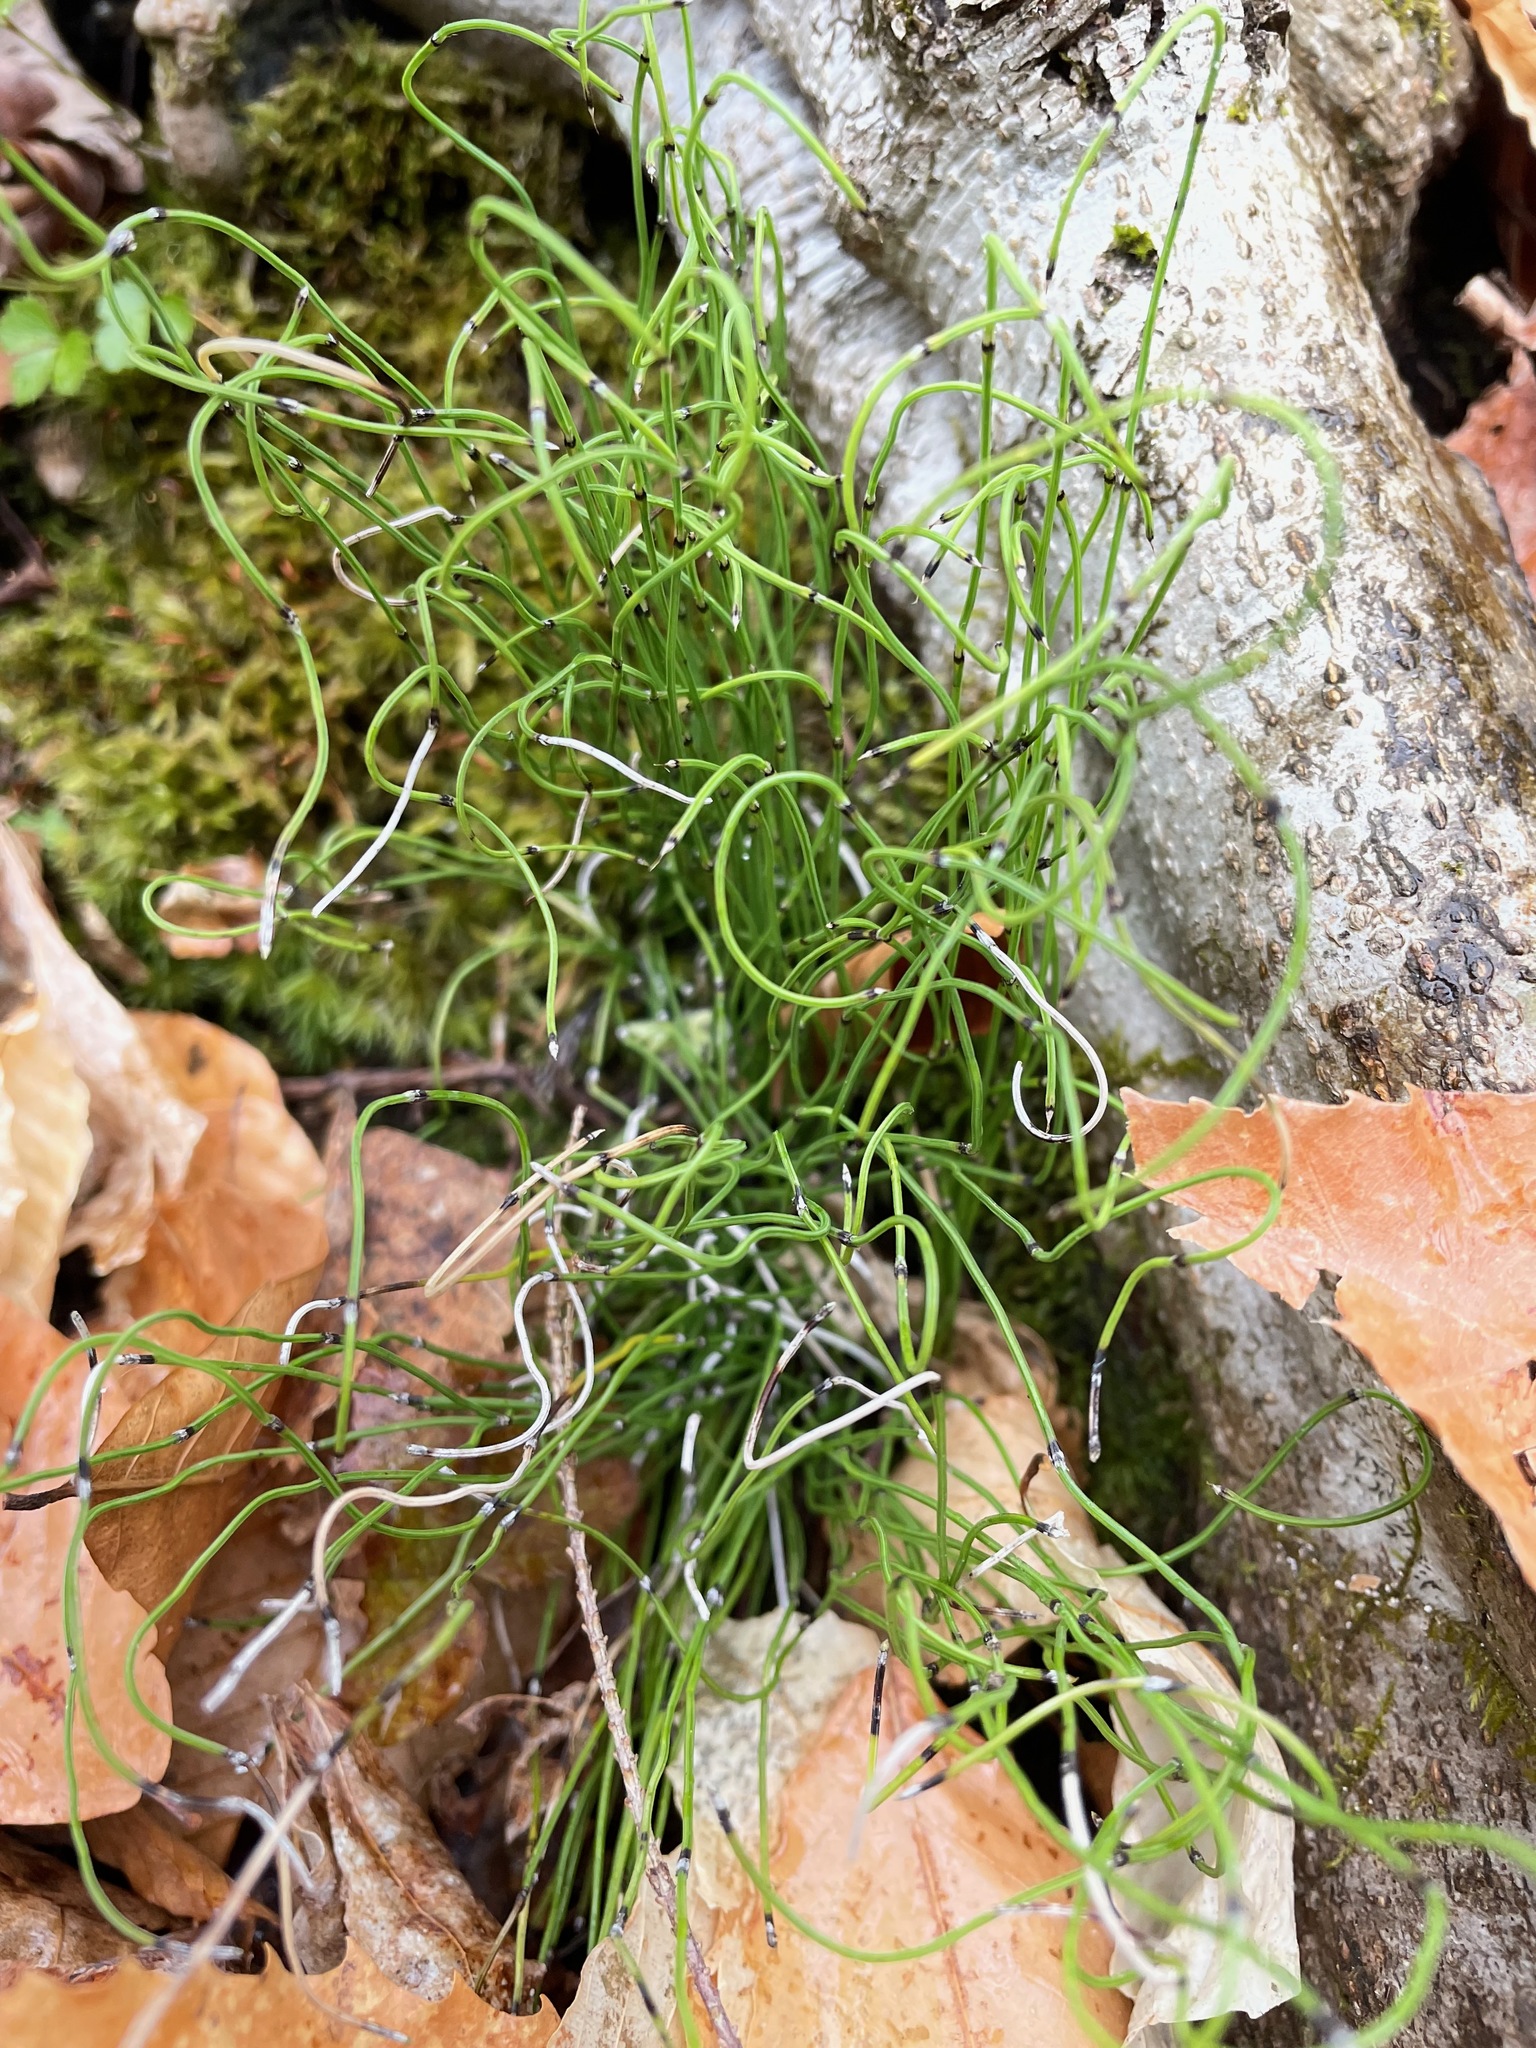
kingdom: Plantae
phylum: Tracheophyta
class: Polypodiopsida
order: Equisetales
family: Equisetaceae
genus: Equisetum
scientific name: Equisetum scirpoides
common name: Delicate horsetail
